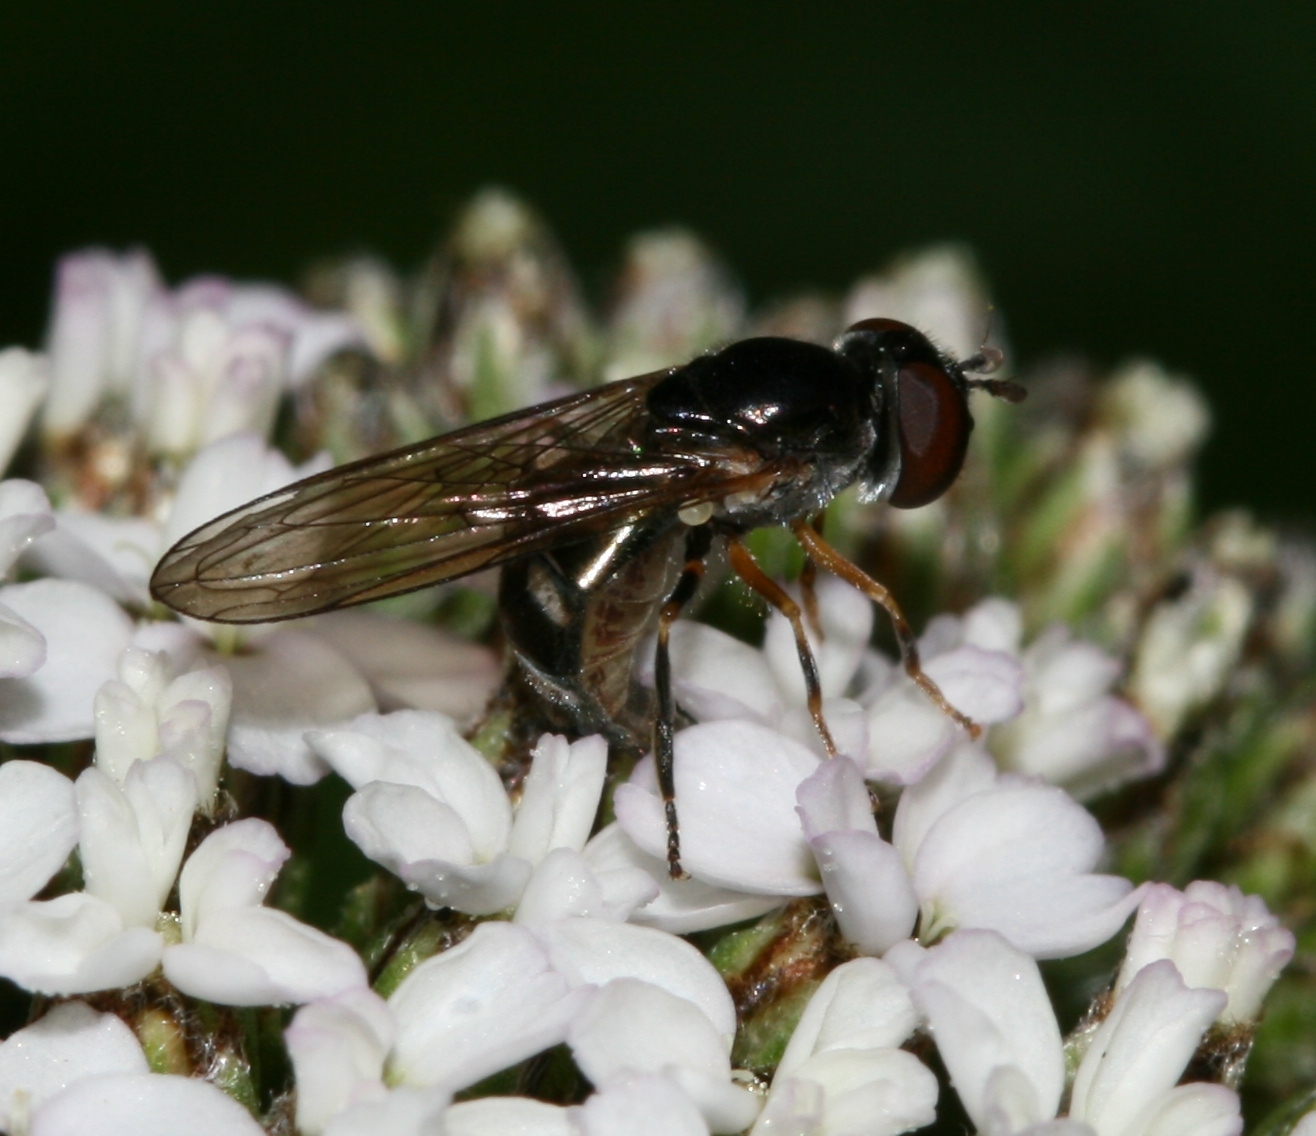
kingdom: Animalia
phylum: Arthropoda
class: Insecta
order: Diptera
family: Syrphidae
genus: Platycheirus
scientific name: Platycheirus albimanus
